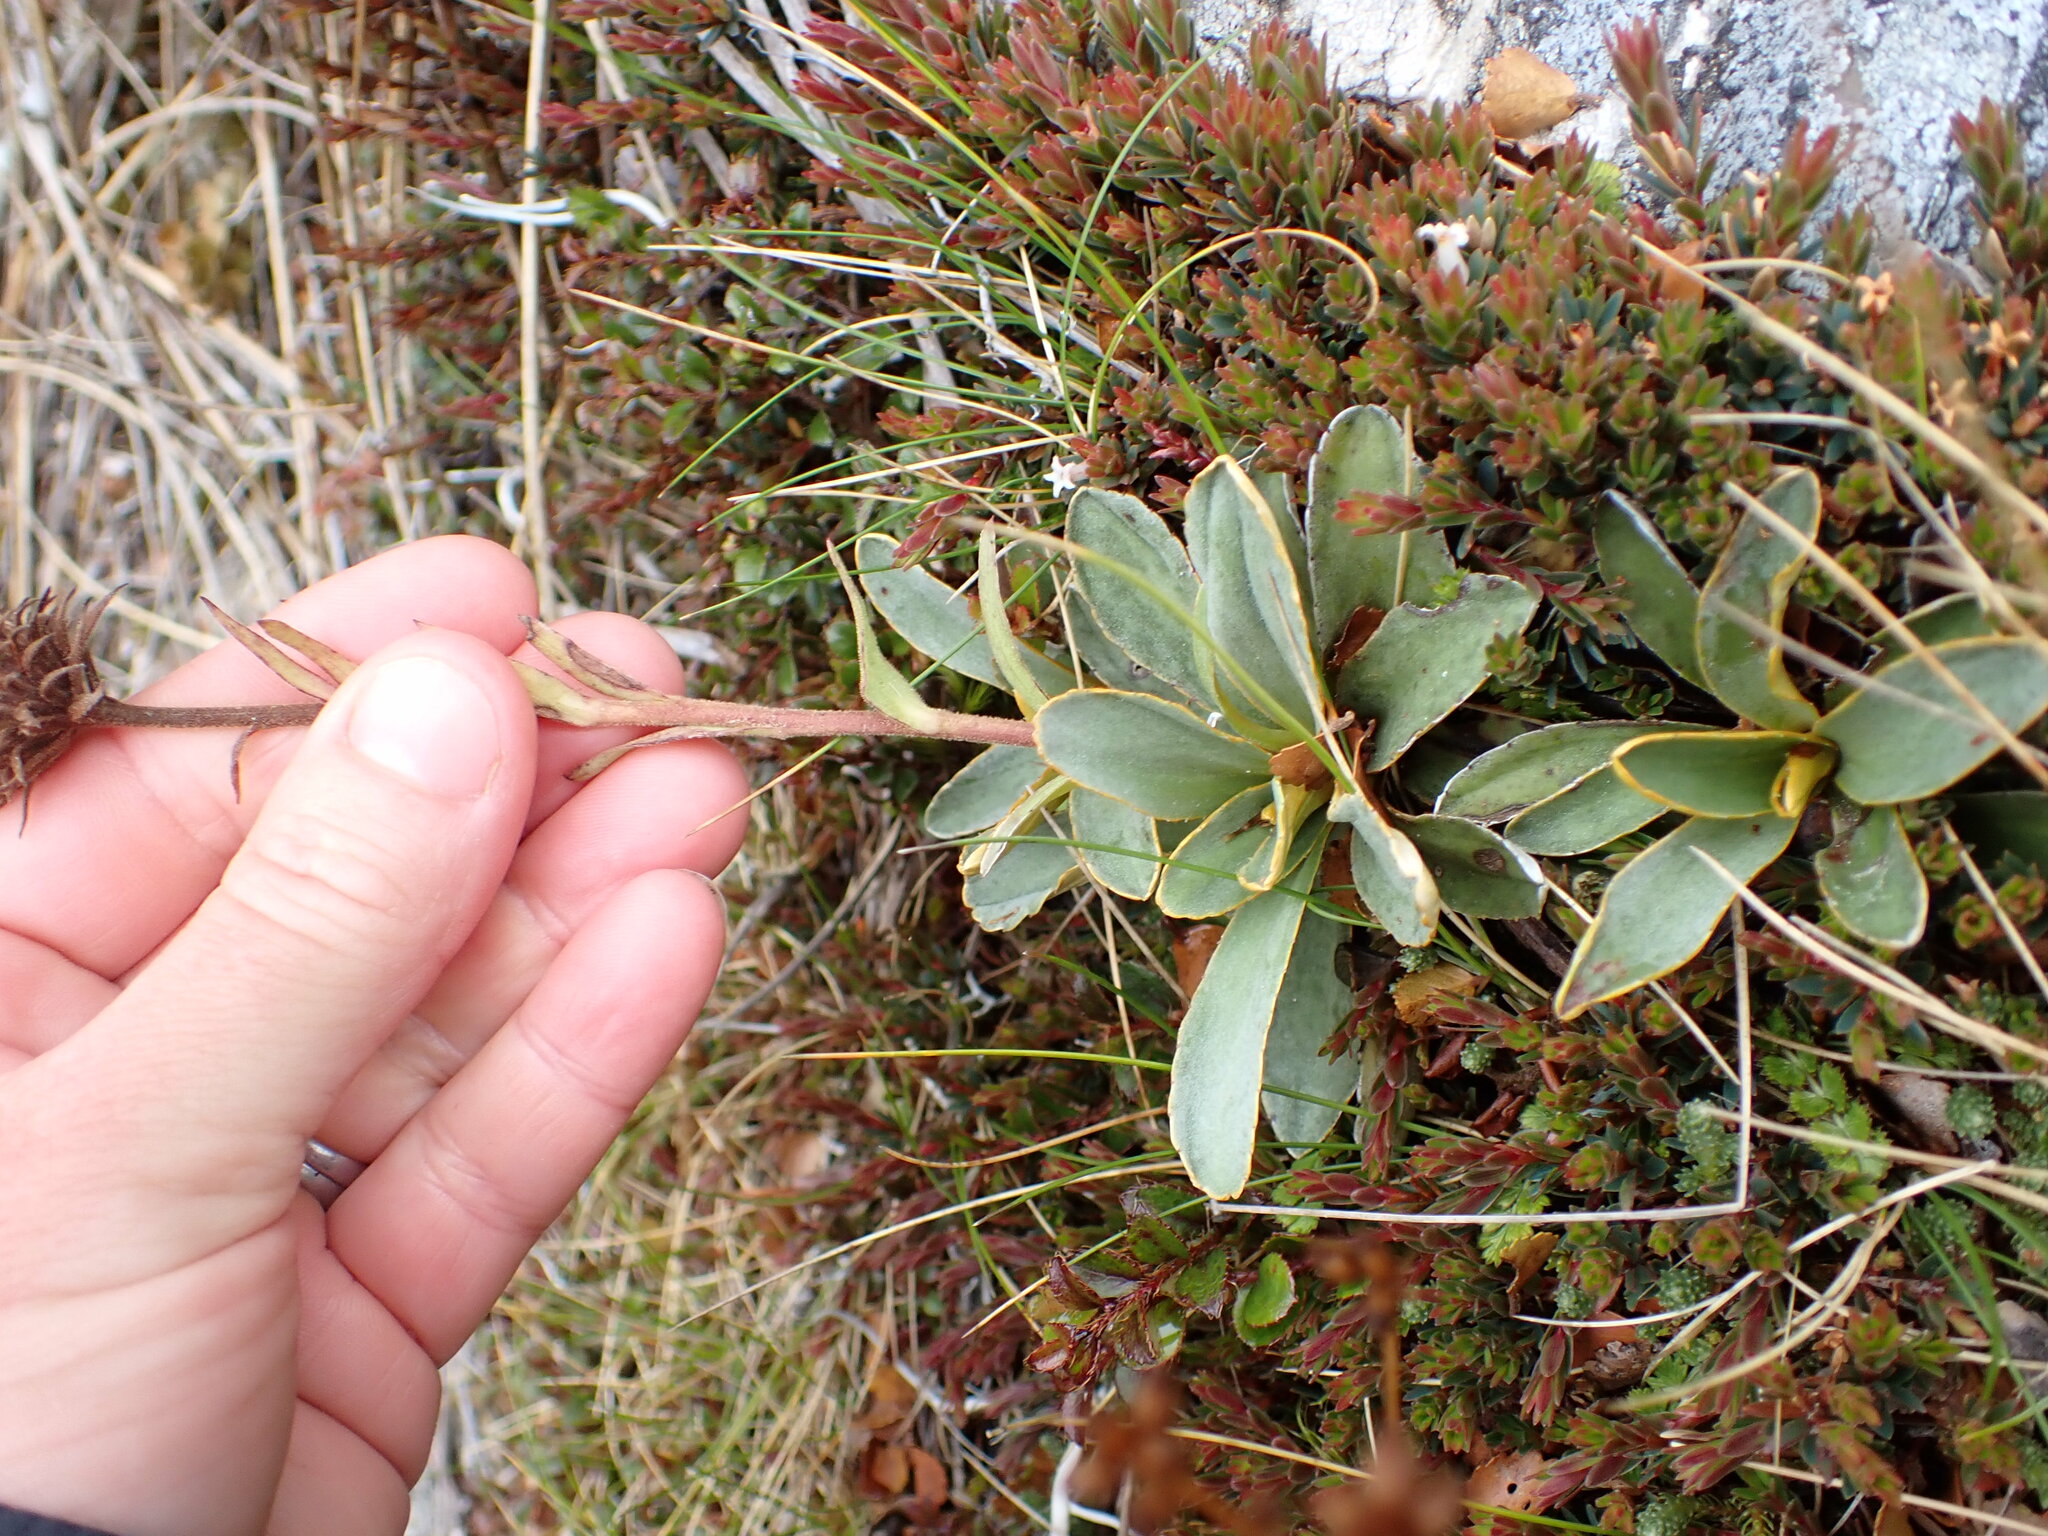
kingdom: Plantae
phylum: Tracheophyta
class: Magnoliopsida
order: Asterales
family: Asteraceae
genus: Celmisia
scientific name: Celmisia hieraciifolia
